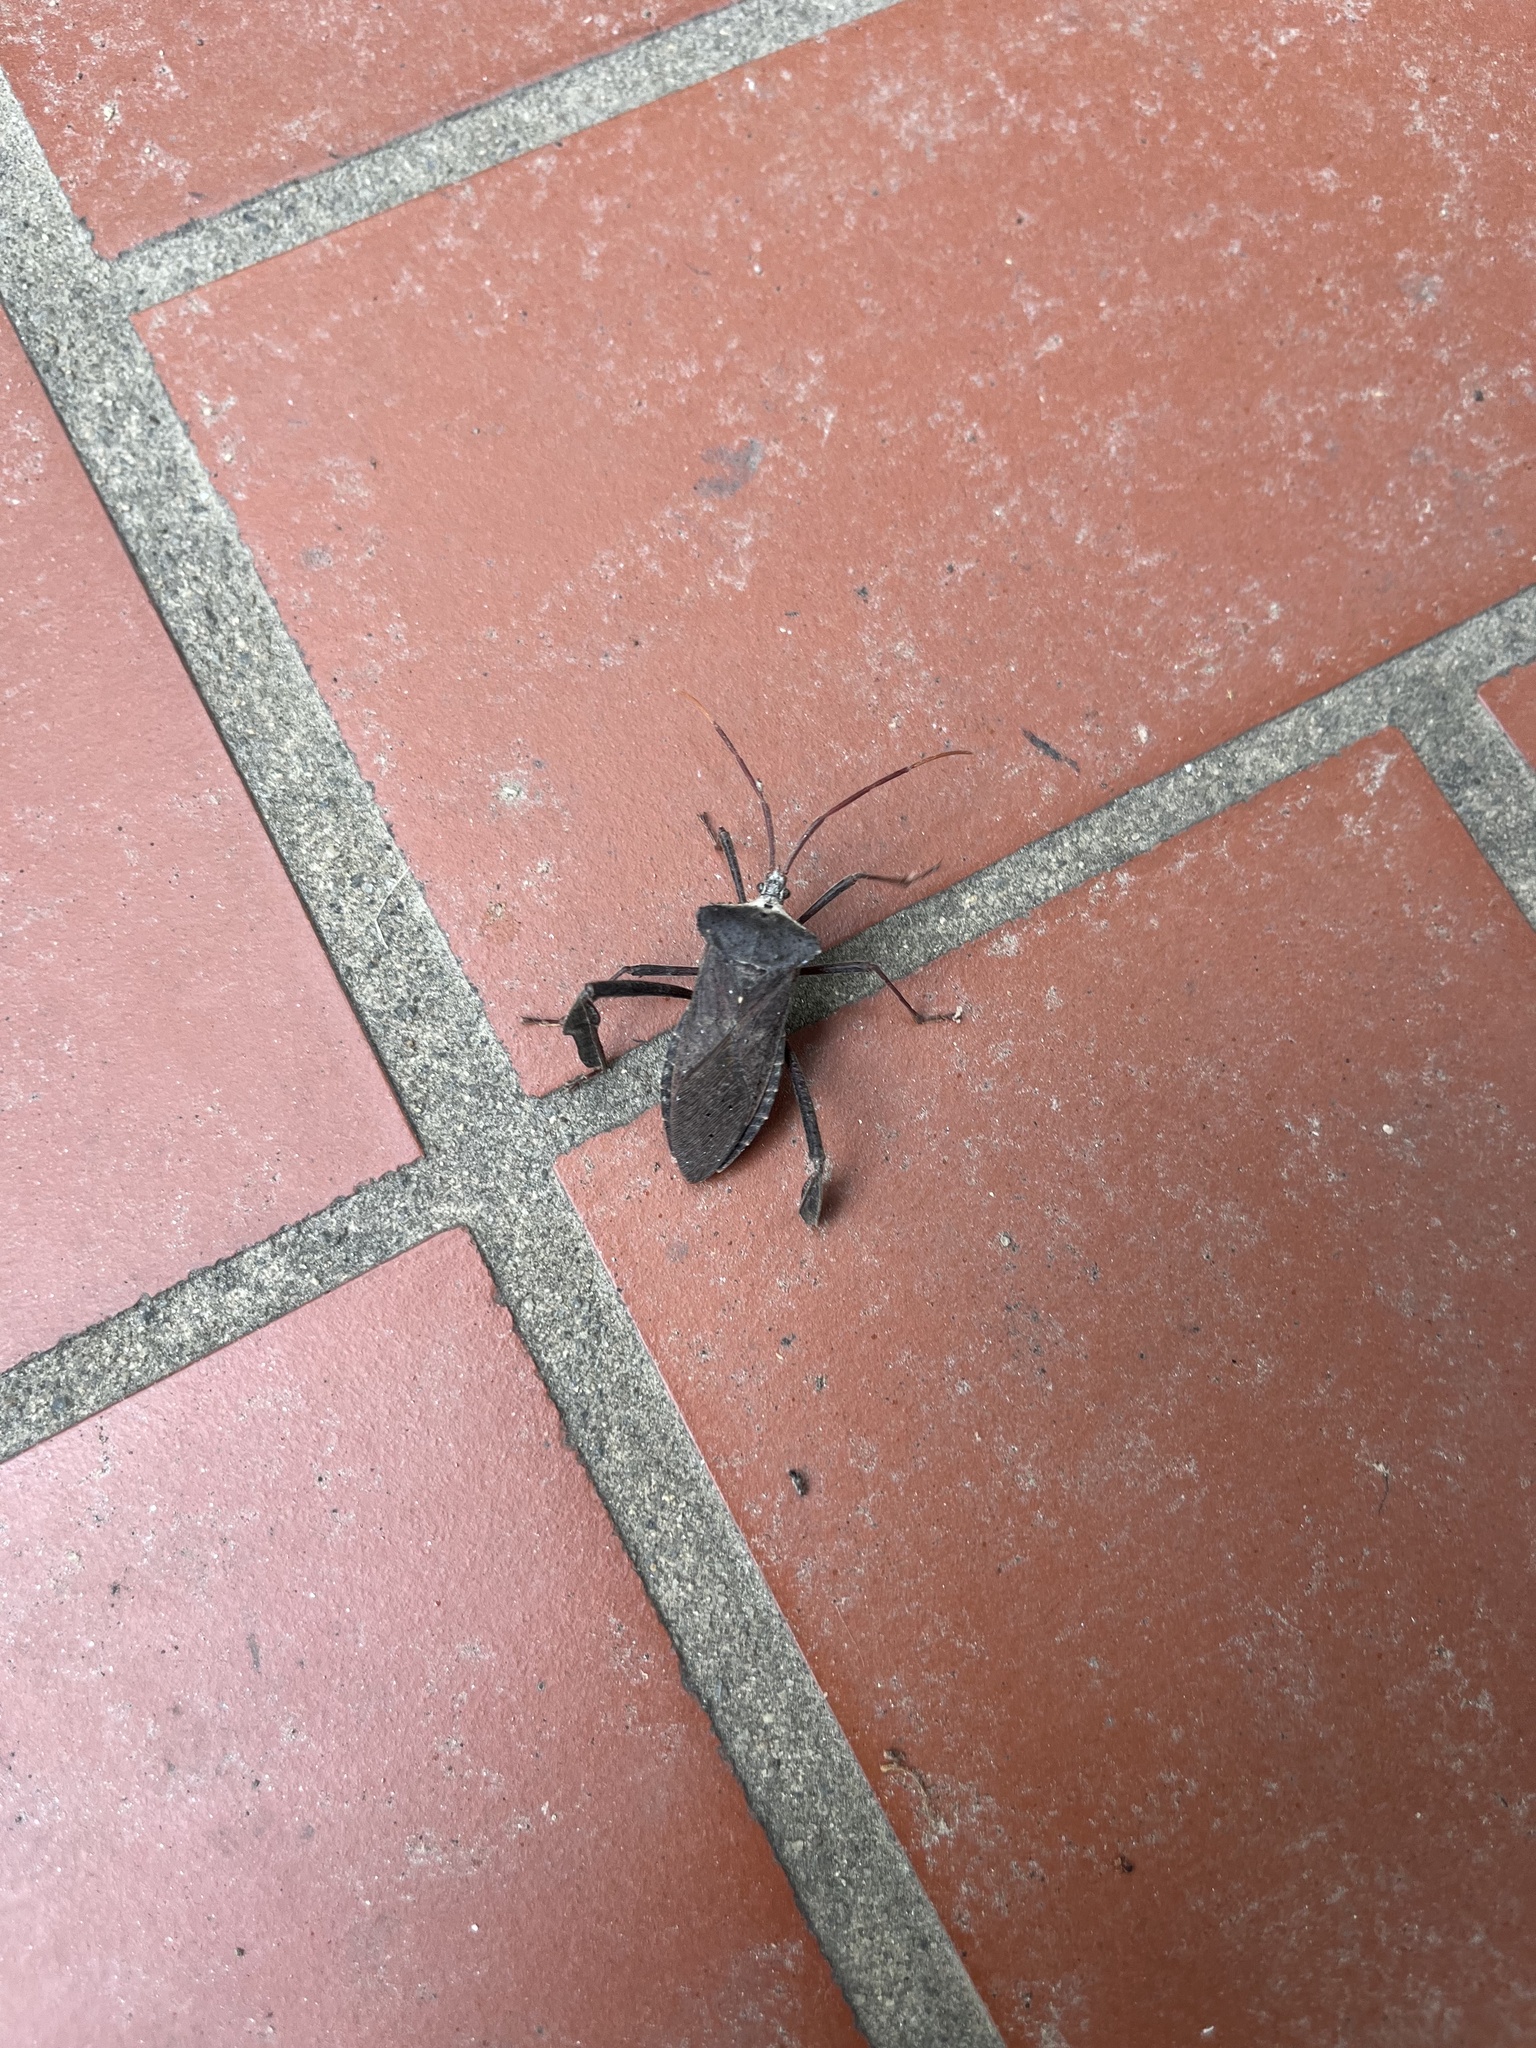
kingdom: Animalia
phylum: Arthropoda
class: Insecta
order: Hemiptera
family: Coreidae
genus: Acanthocephala
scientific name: Acanthocephala declivis
